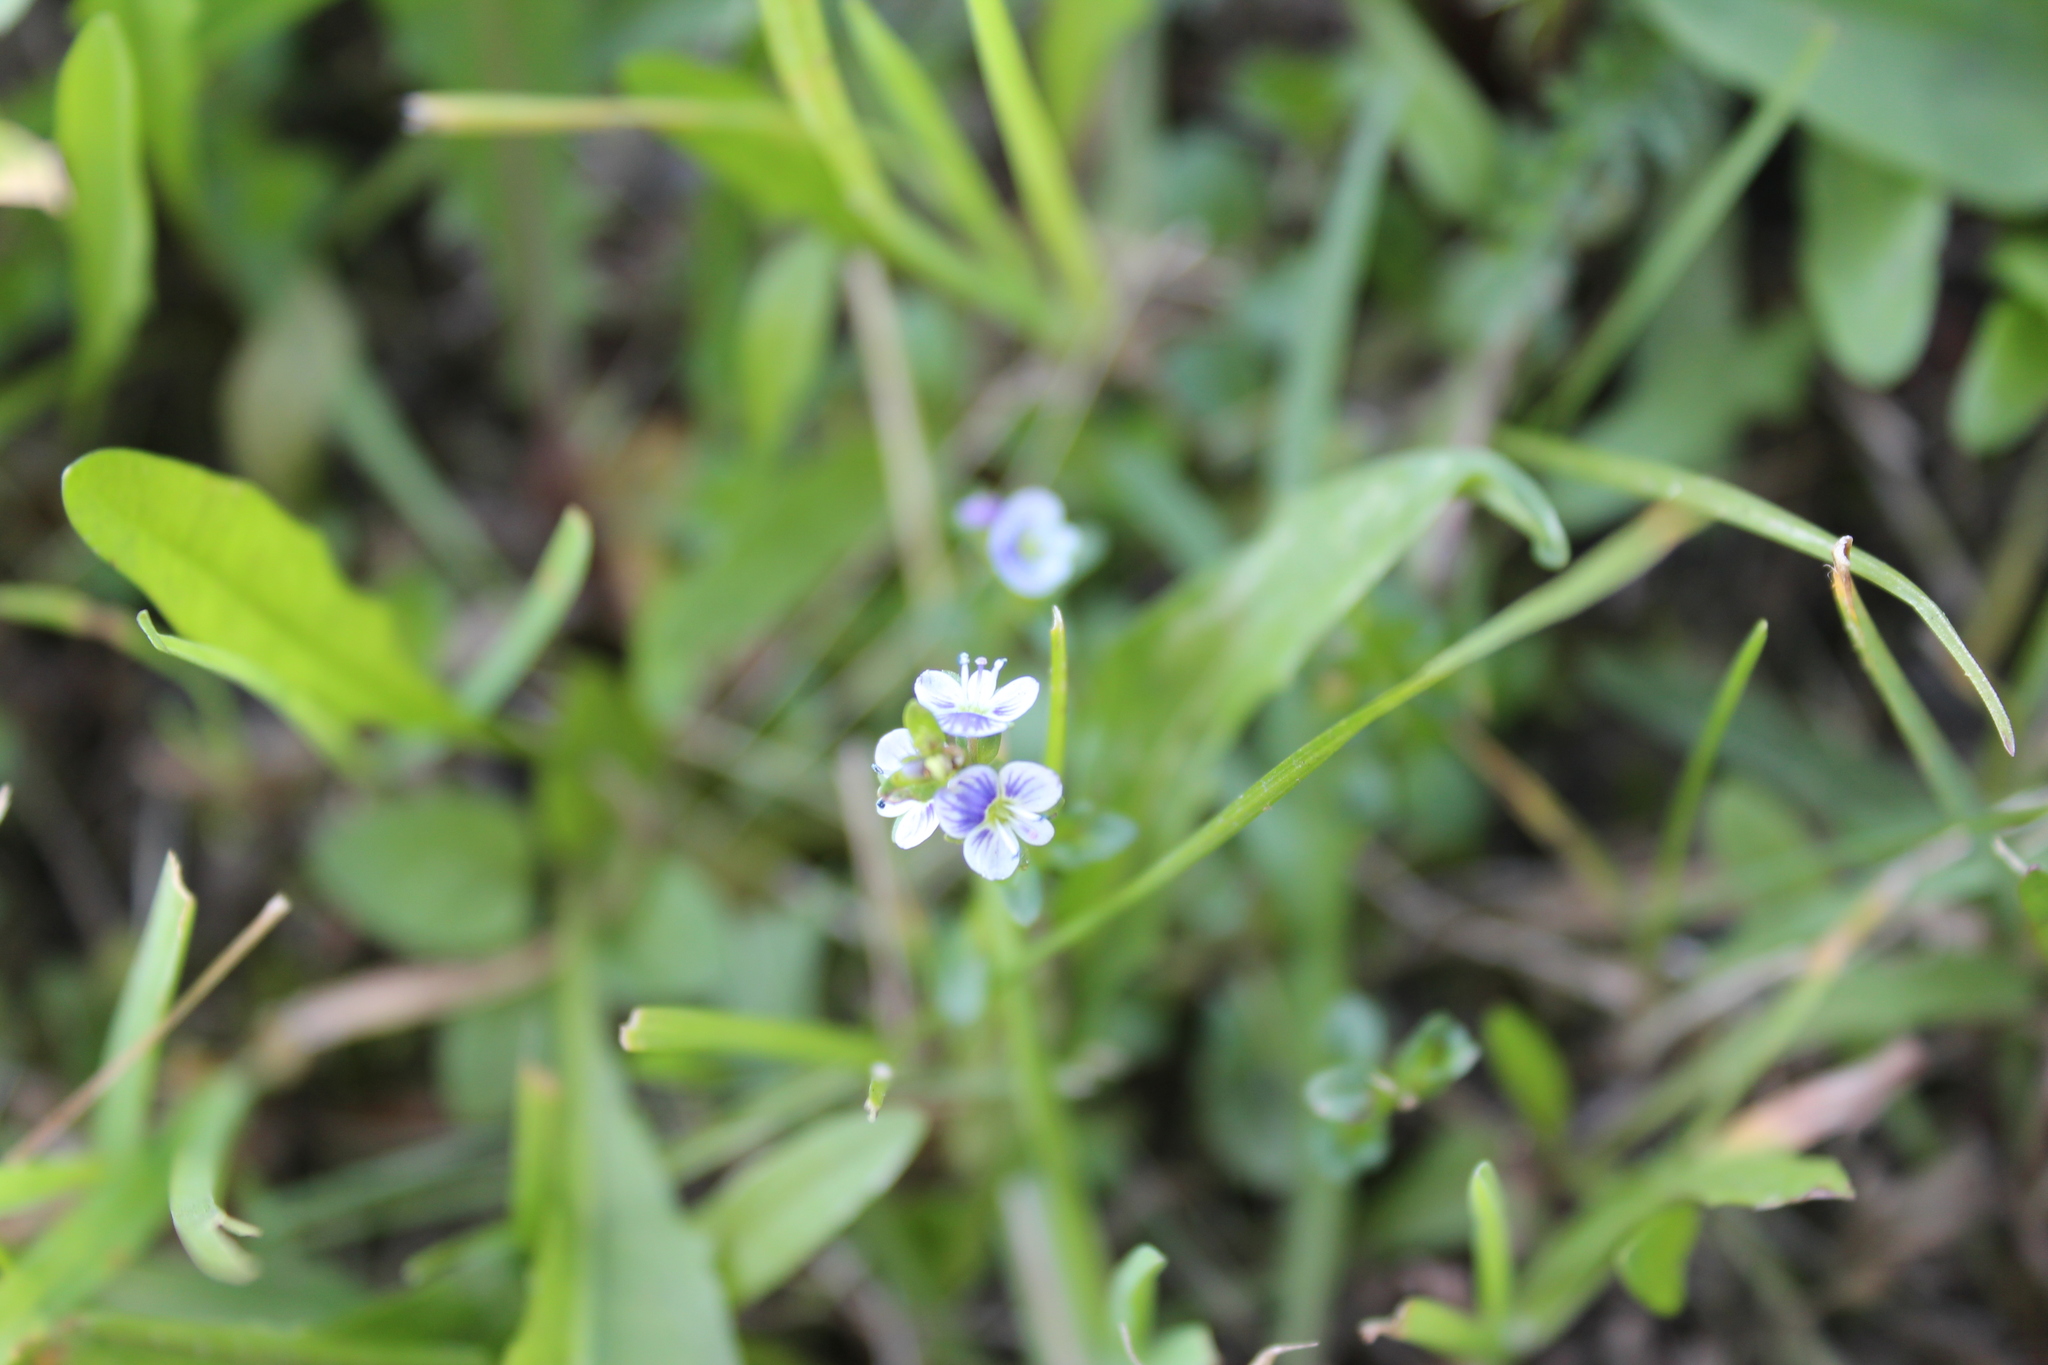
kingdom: Plantae
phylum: Tracheophyta
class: Magnoliopsida
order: Lamiales
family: Plantaginaceae
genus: Veronica
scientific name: Veronica serpyllifolia
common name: Thyme-leaved speedwell
